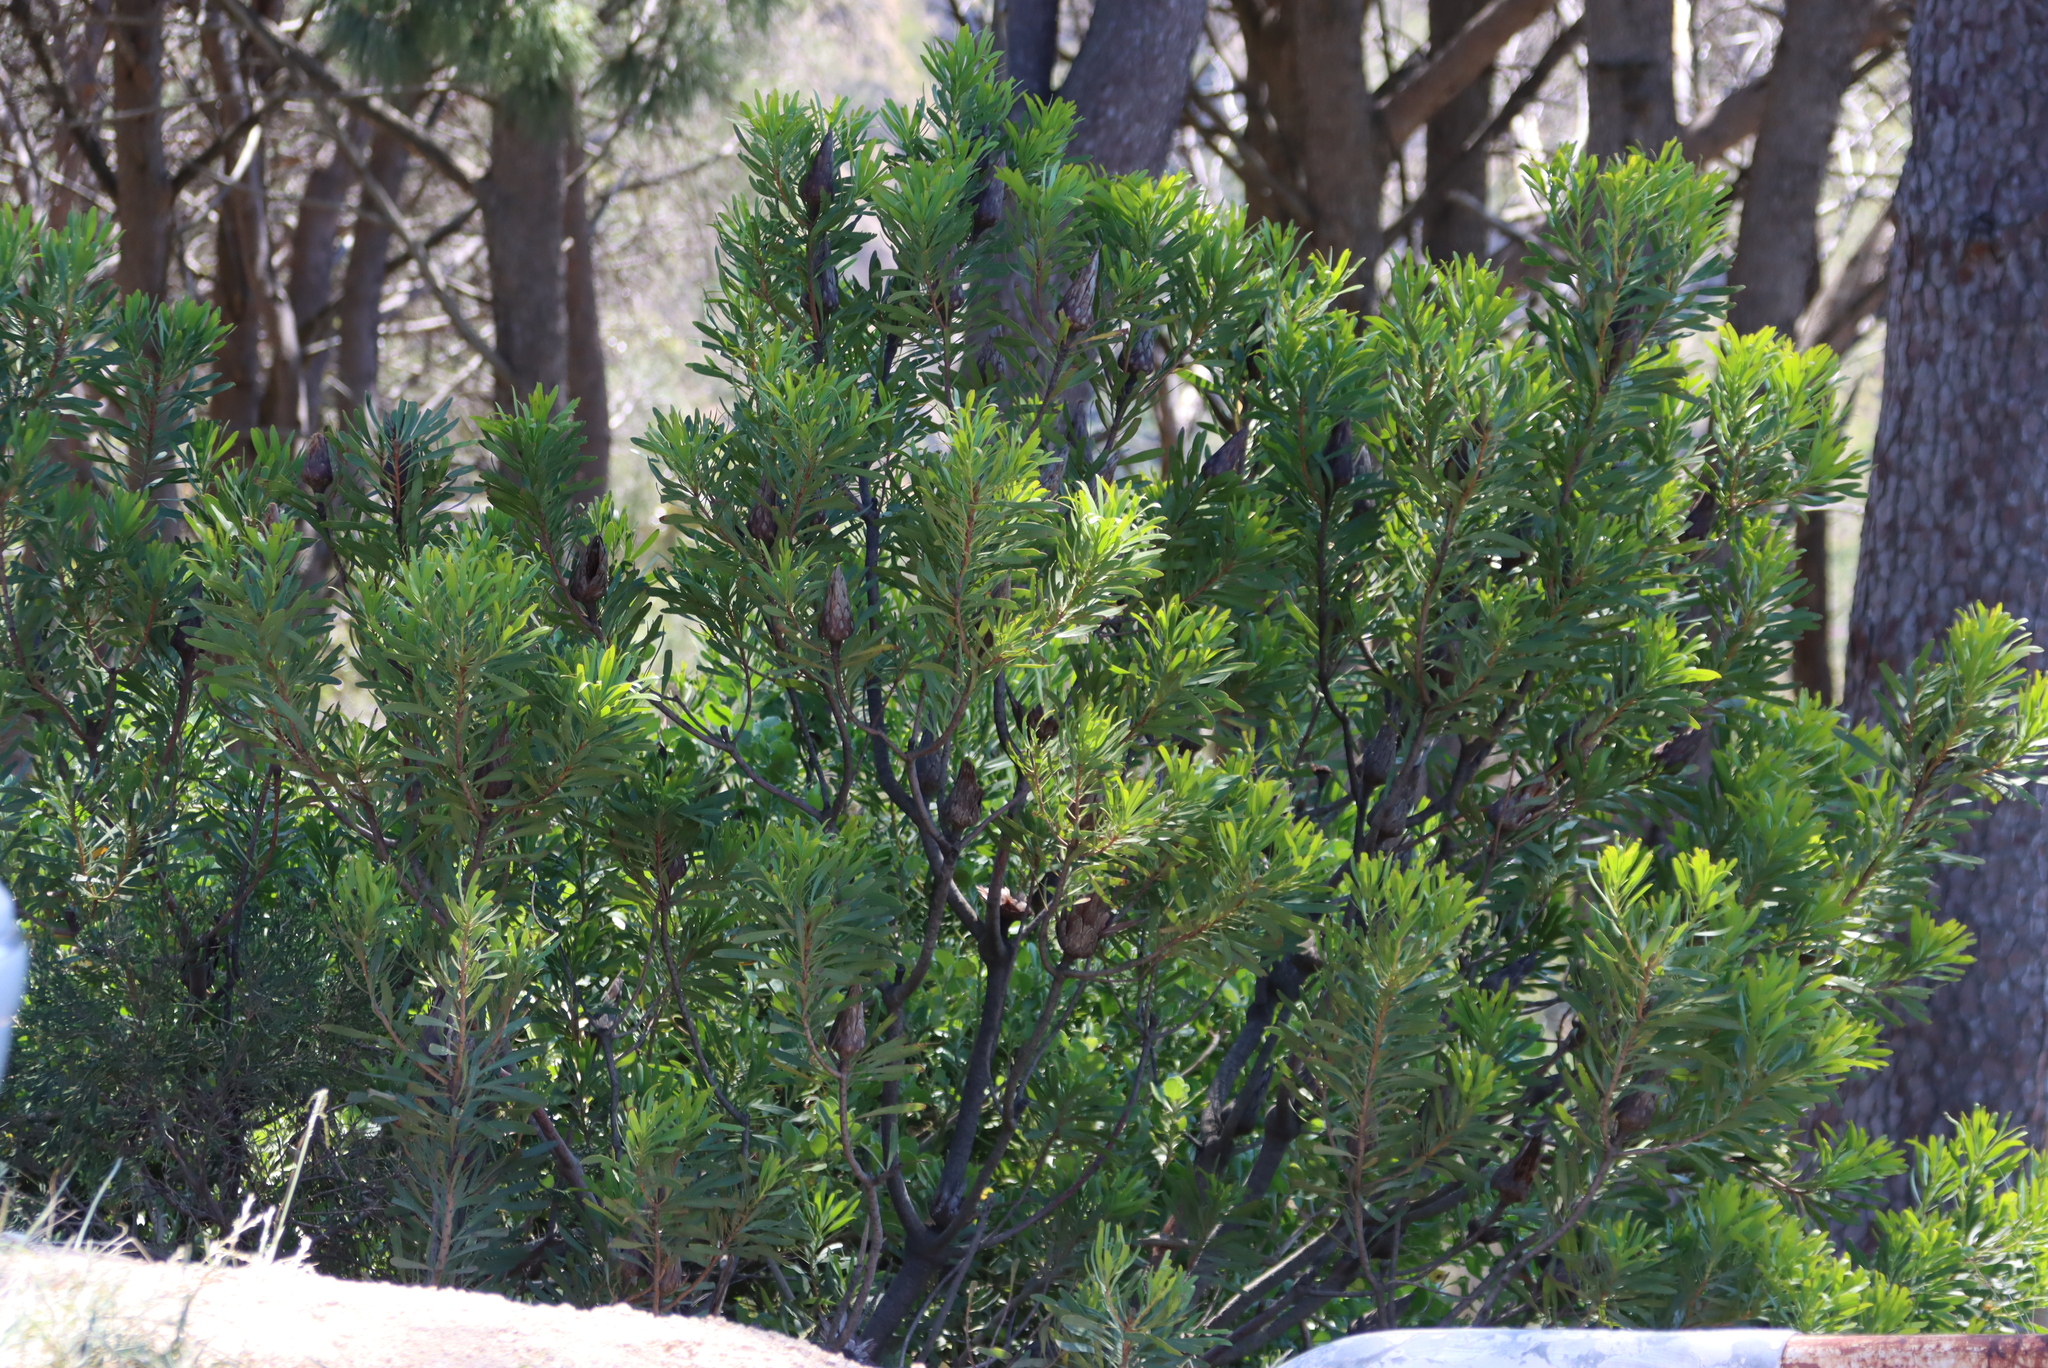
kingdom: Plantae
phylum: Tracheophyta
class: Magnoliopsida
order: Proteales
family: Proteaceae
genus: Protea
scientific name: Protea repens
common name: Sugarbush
